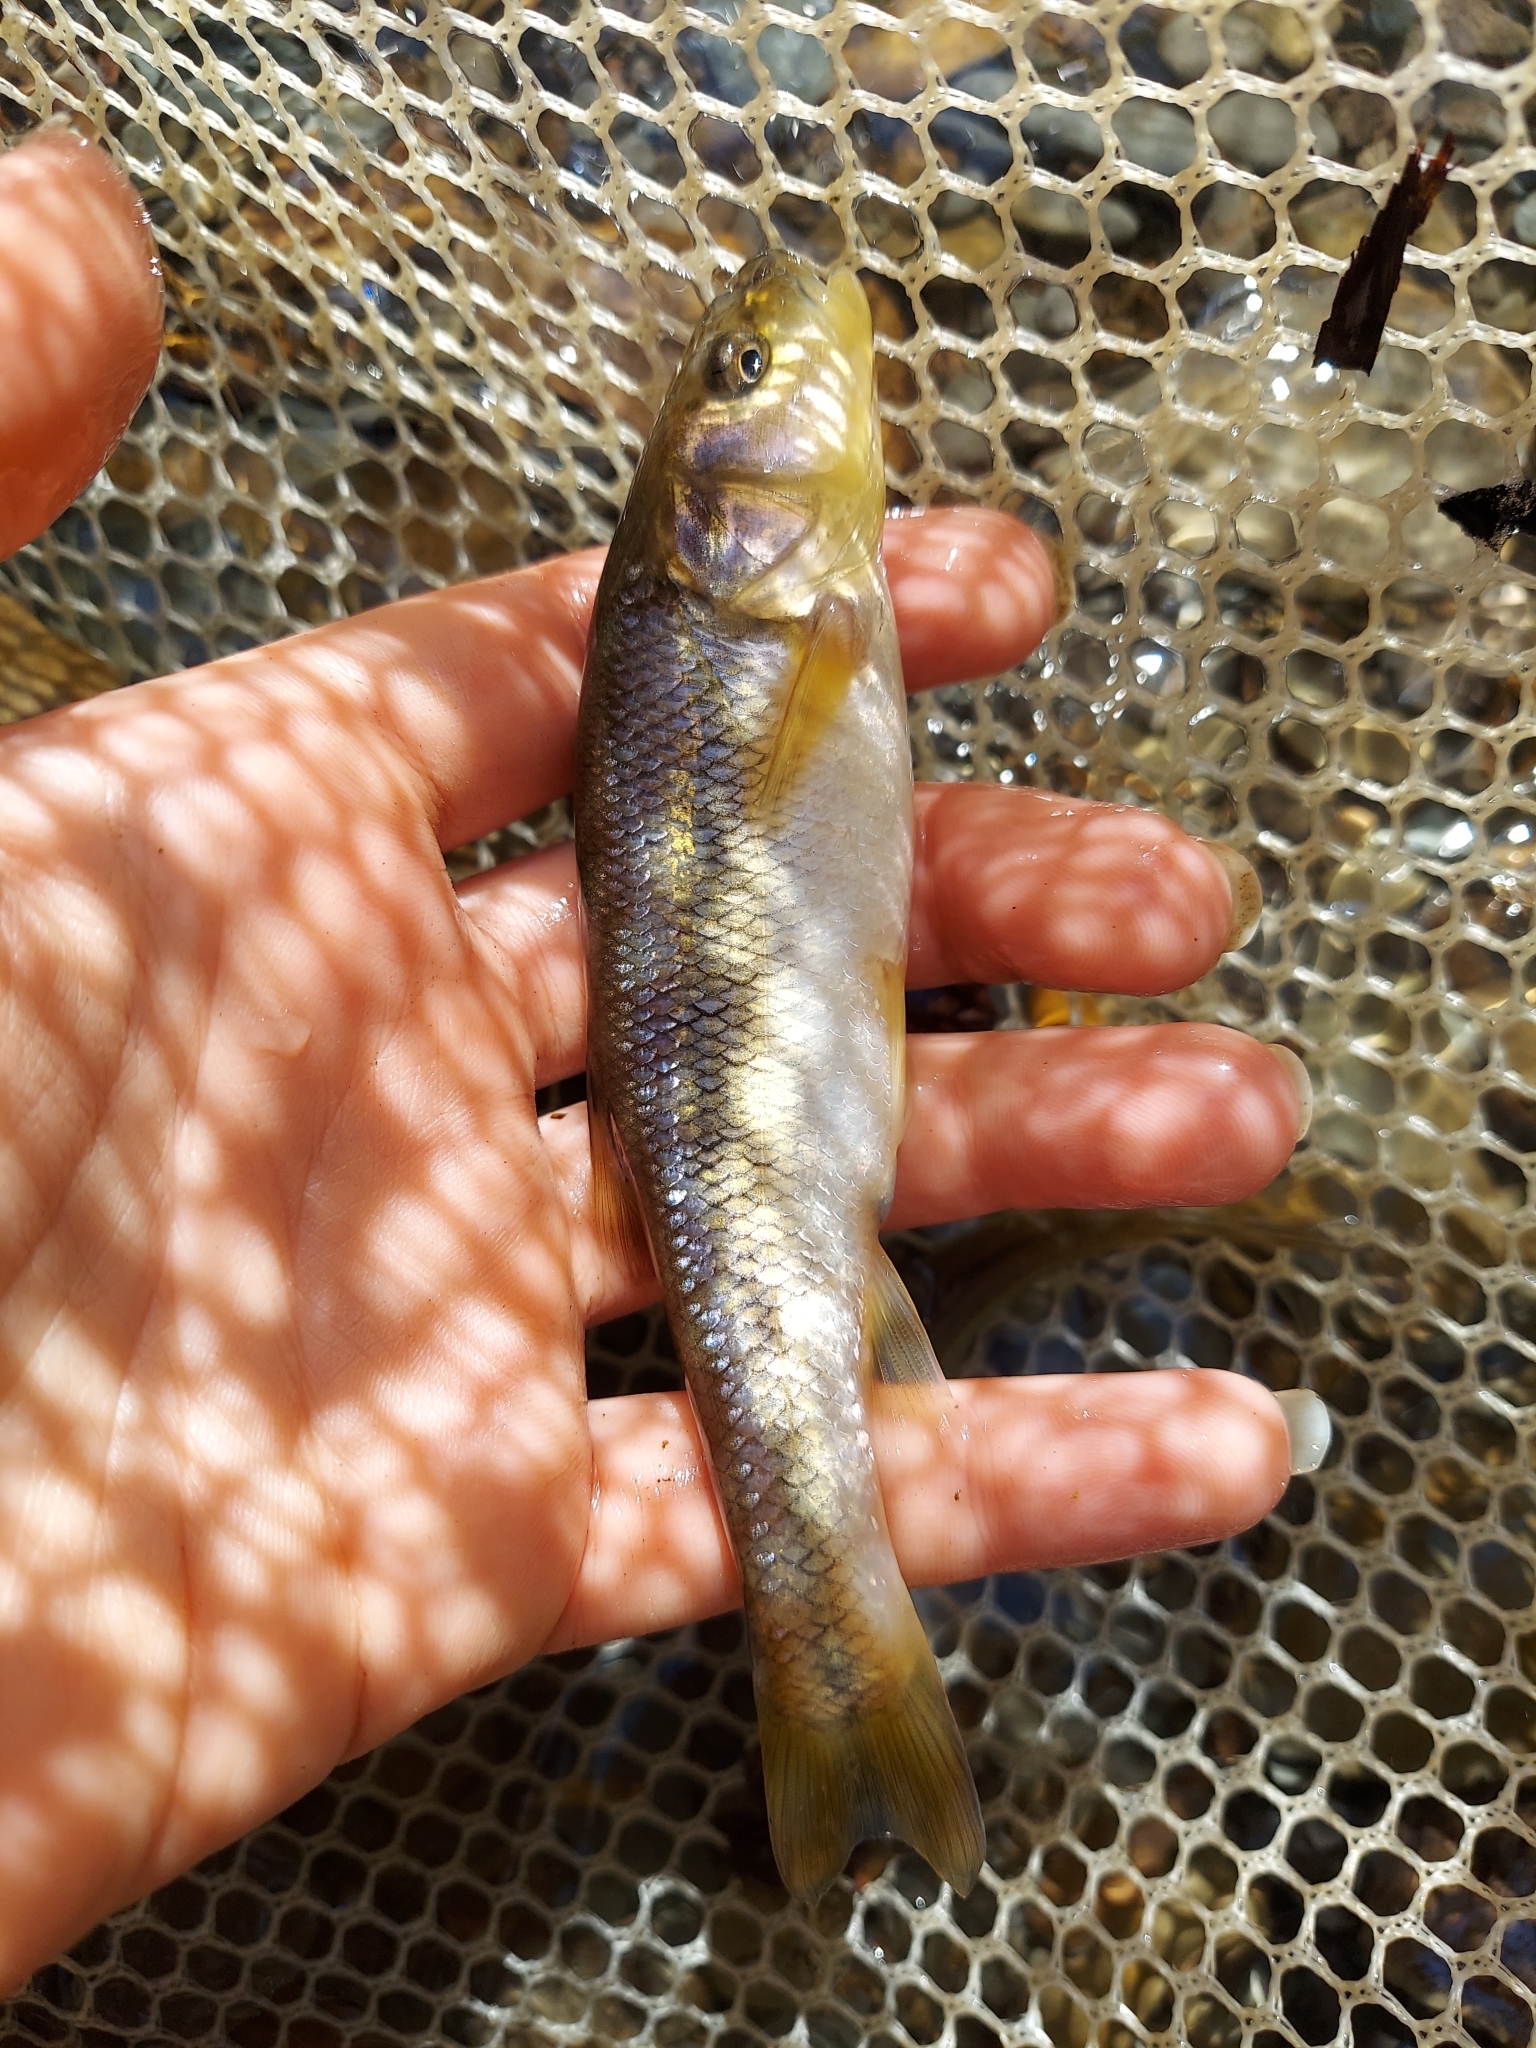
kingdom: Animalia
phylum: Chordata
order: Cypriniformes
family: Cyprinidae
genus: Semotilus
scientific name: Semotilus atromaculatus
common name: Creek chub
